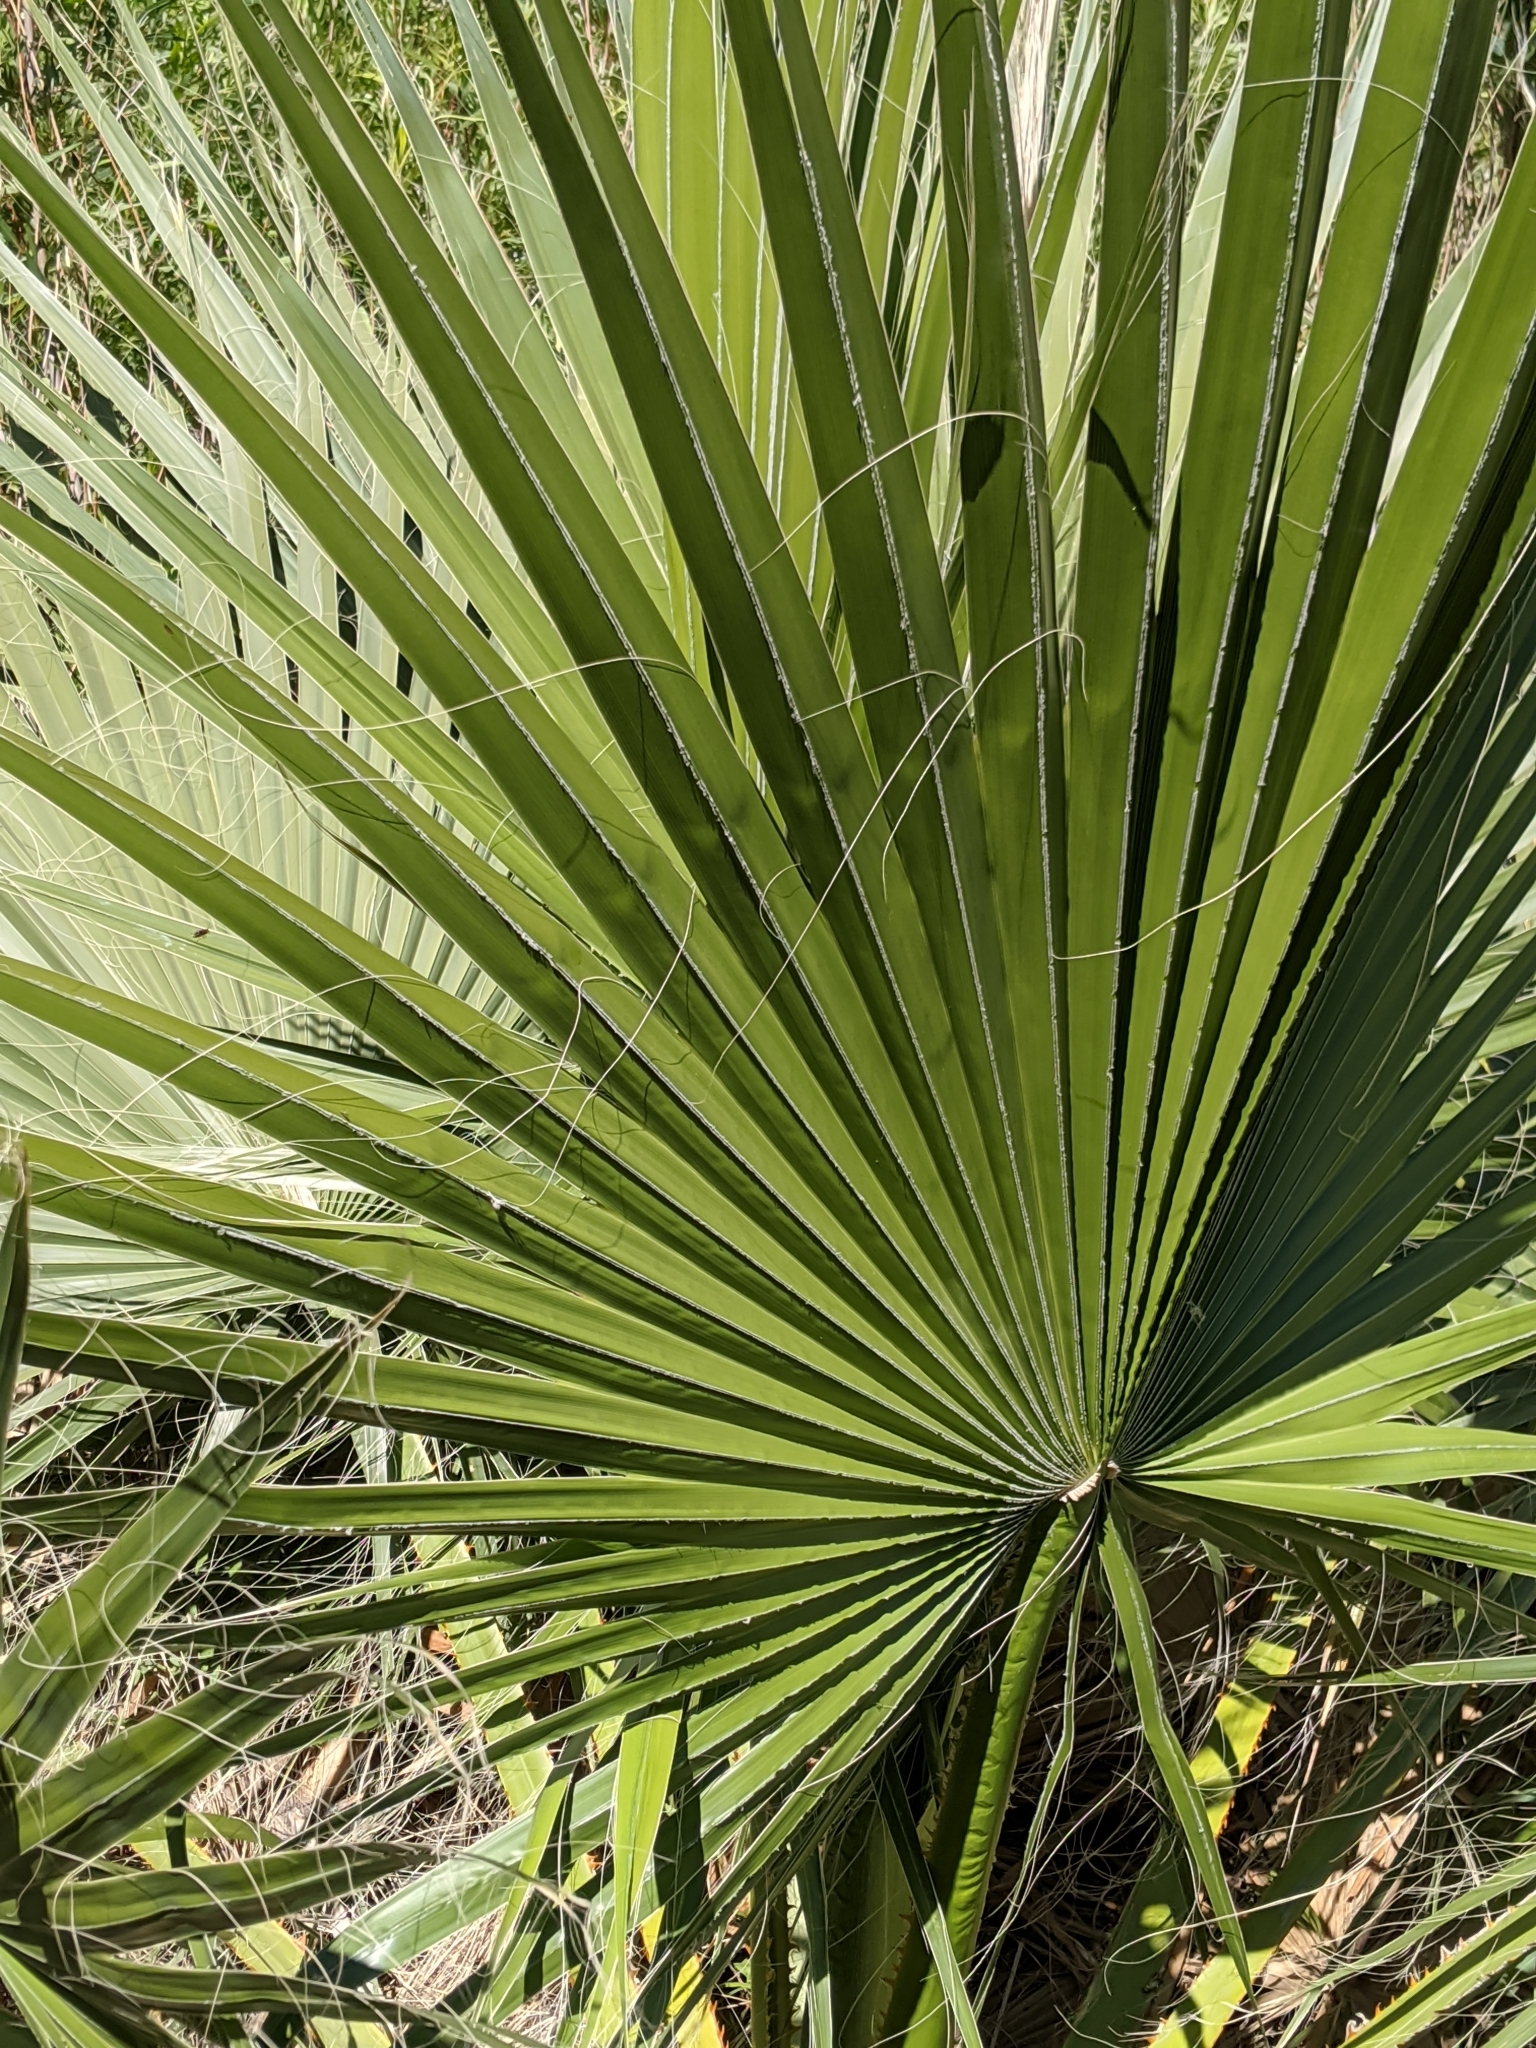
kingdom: Plantae
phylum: Tracheophyta
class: Liliopsida
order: Arecales
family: Arecaceae
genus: Washingtonia
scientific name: Washingtonia filifera
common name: California fan palm
